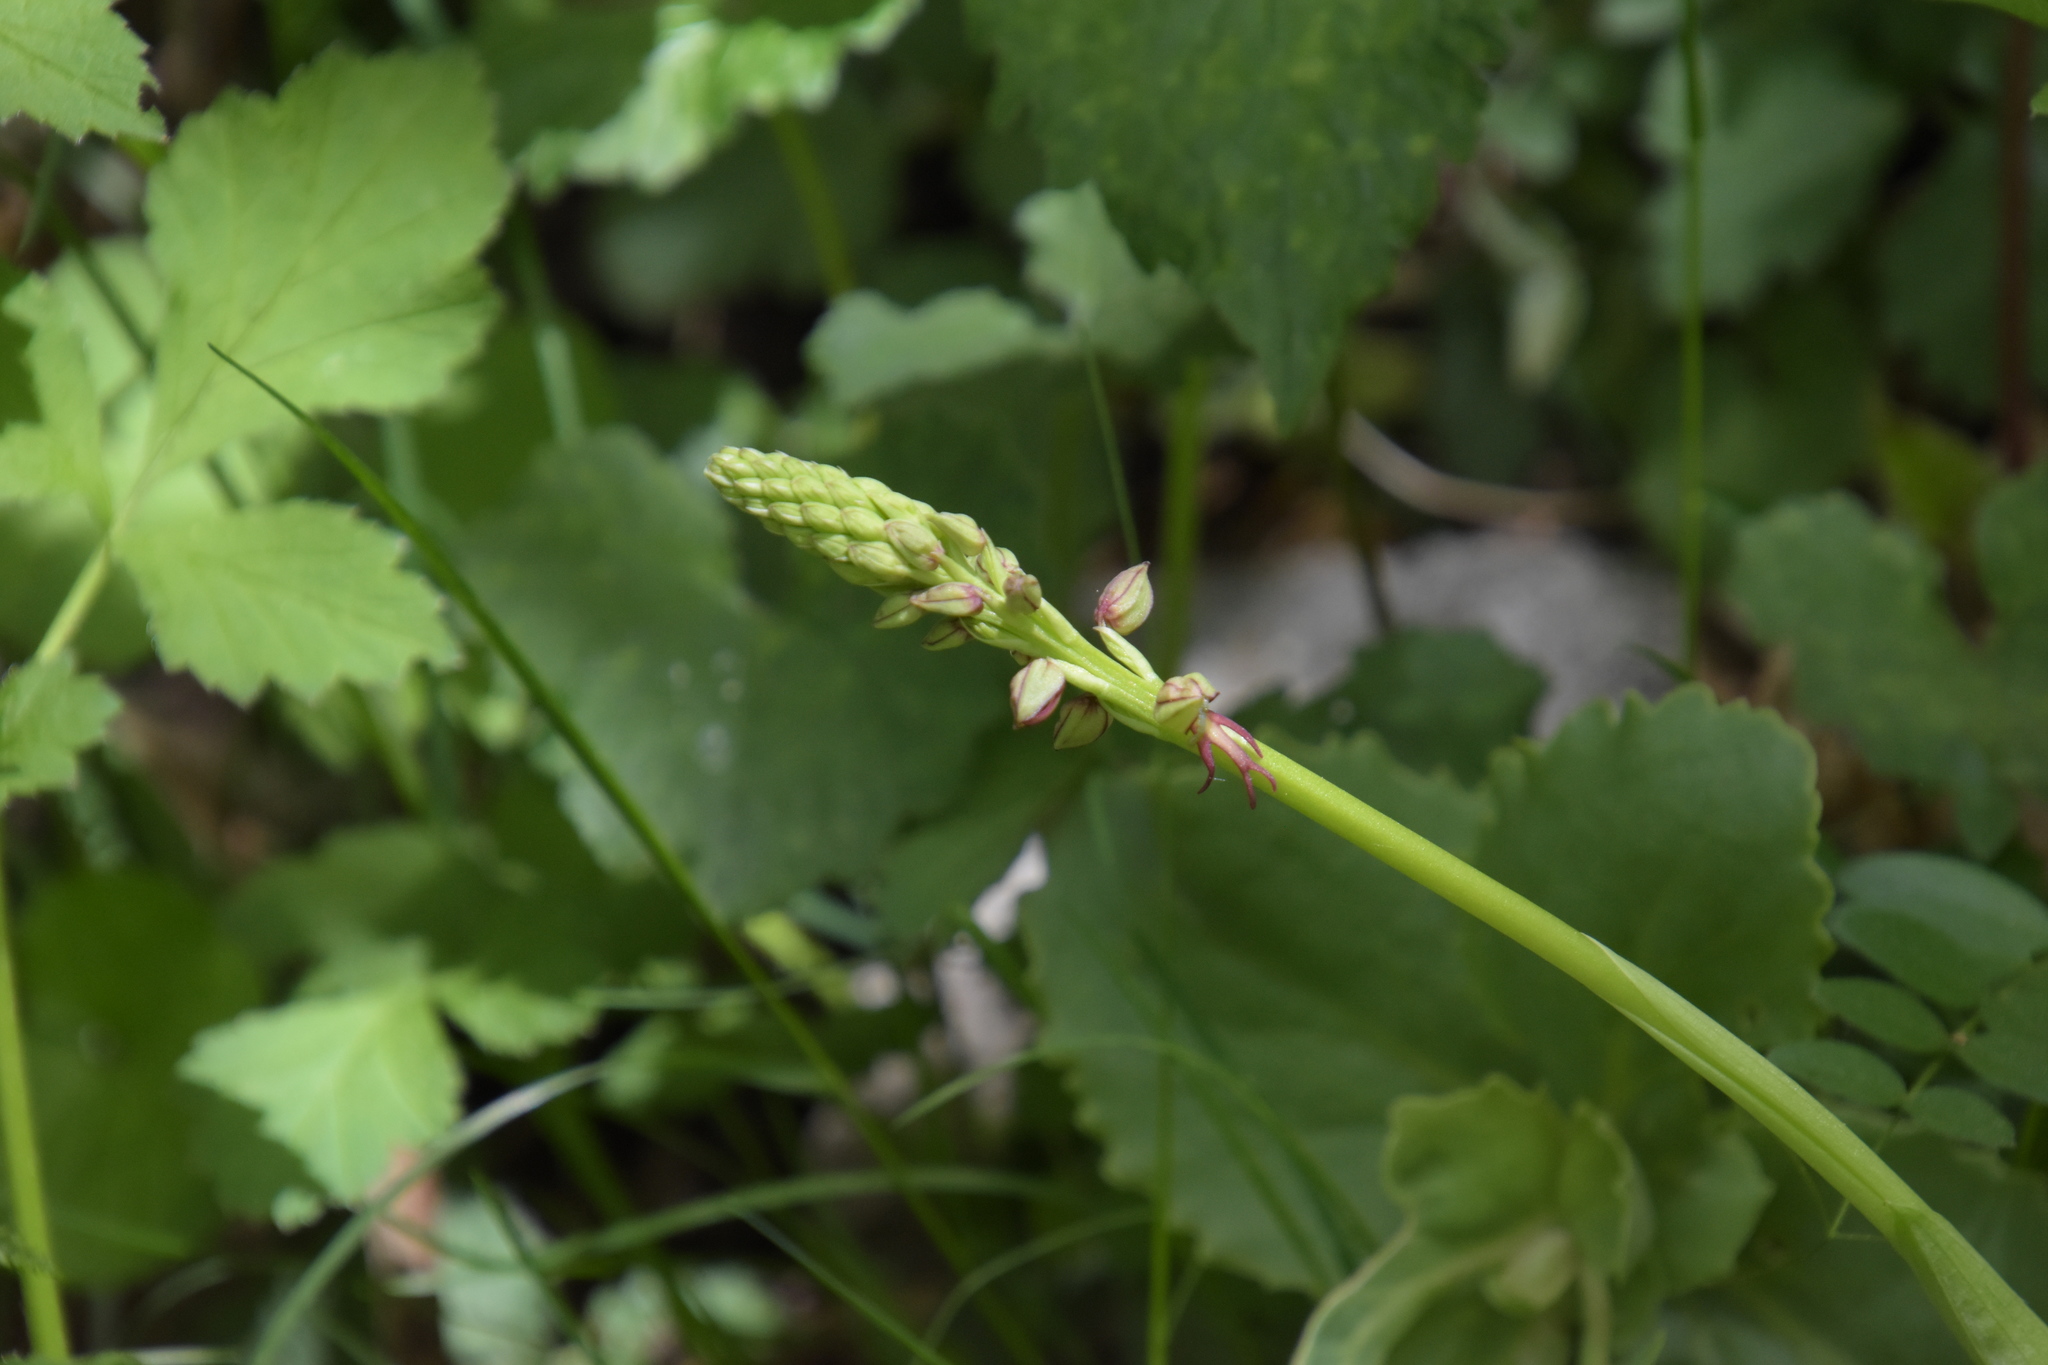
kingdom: Plantae
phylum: Tracheophyta
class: Liliopsida
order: Asparagales
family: Orchidaceae
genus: Orchis
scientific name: Orchis anthropophora
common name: Man orchid
